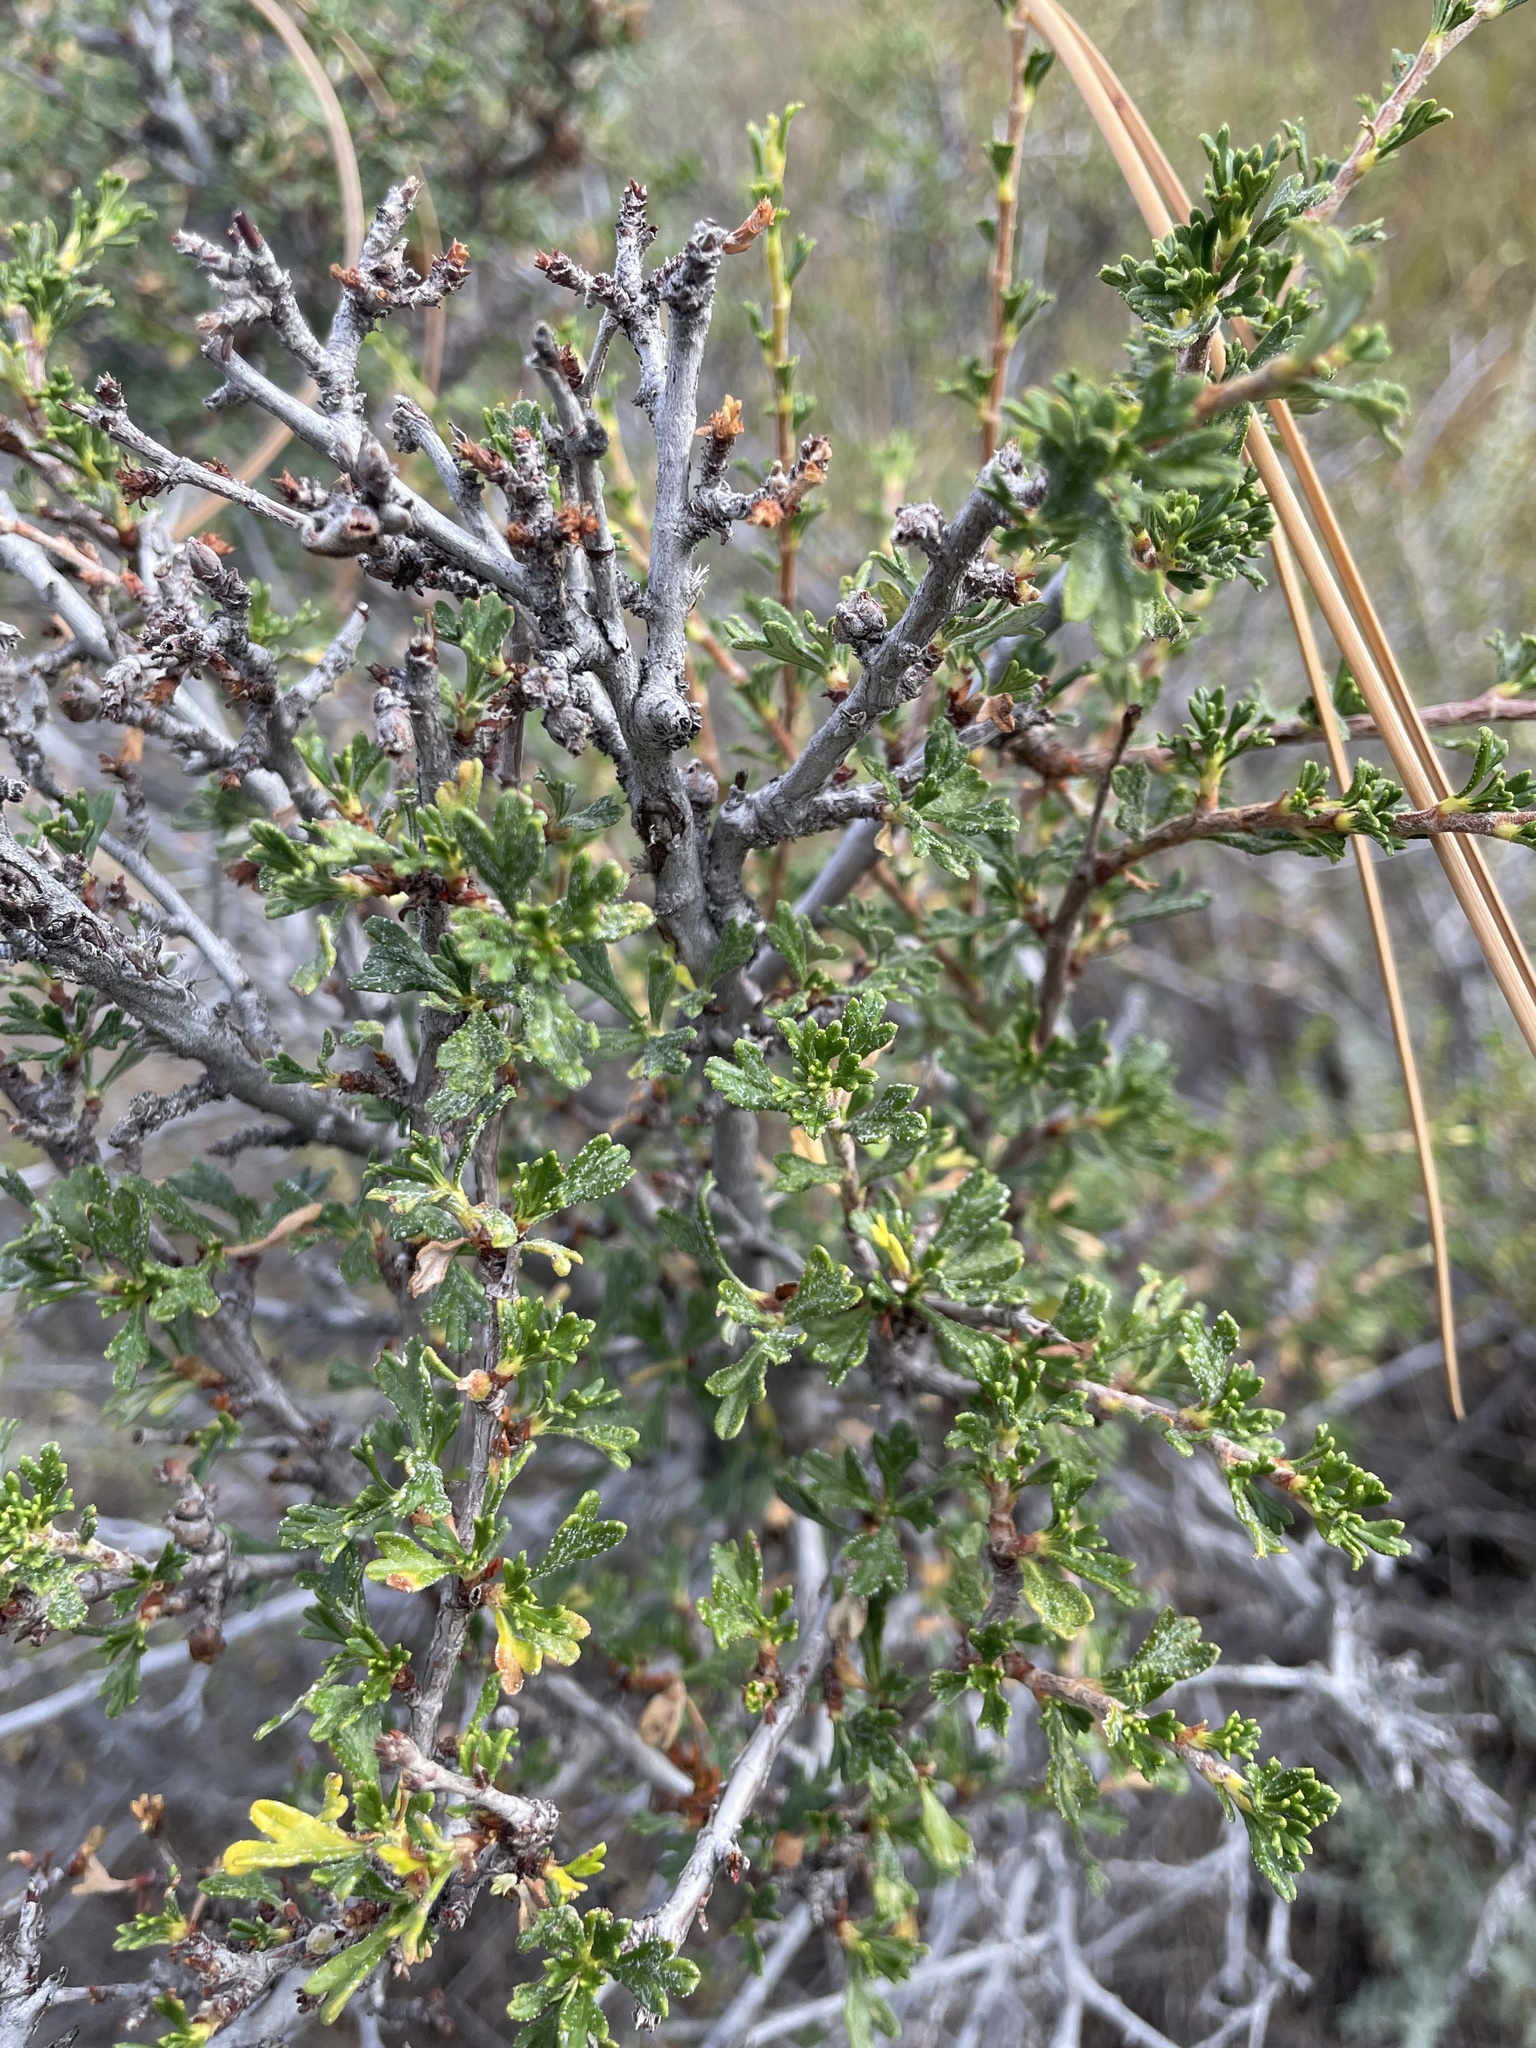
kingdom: Plantae
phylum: Tracheophyta
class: Magnoliopsida
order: Rosales
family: Rosaceae
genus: Purshia
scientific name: Purshia tridentata
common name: Antelope bitterbrush
